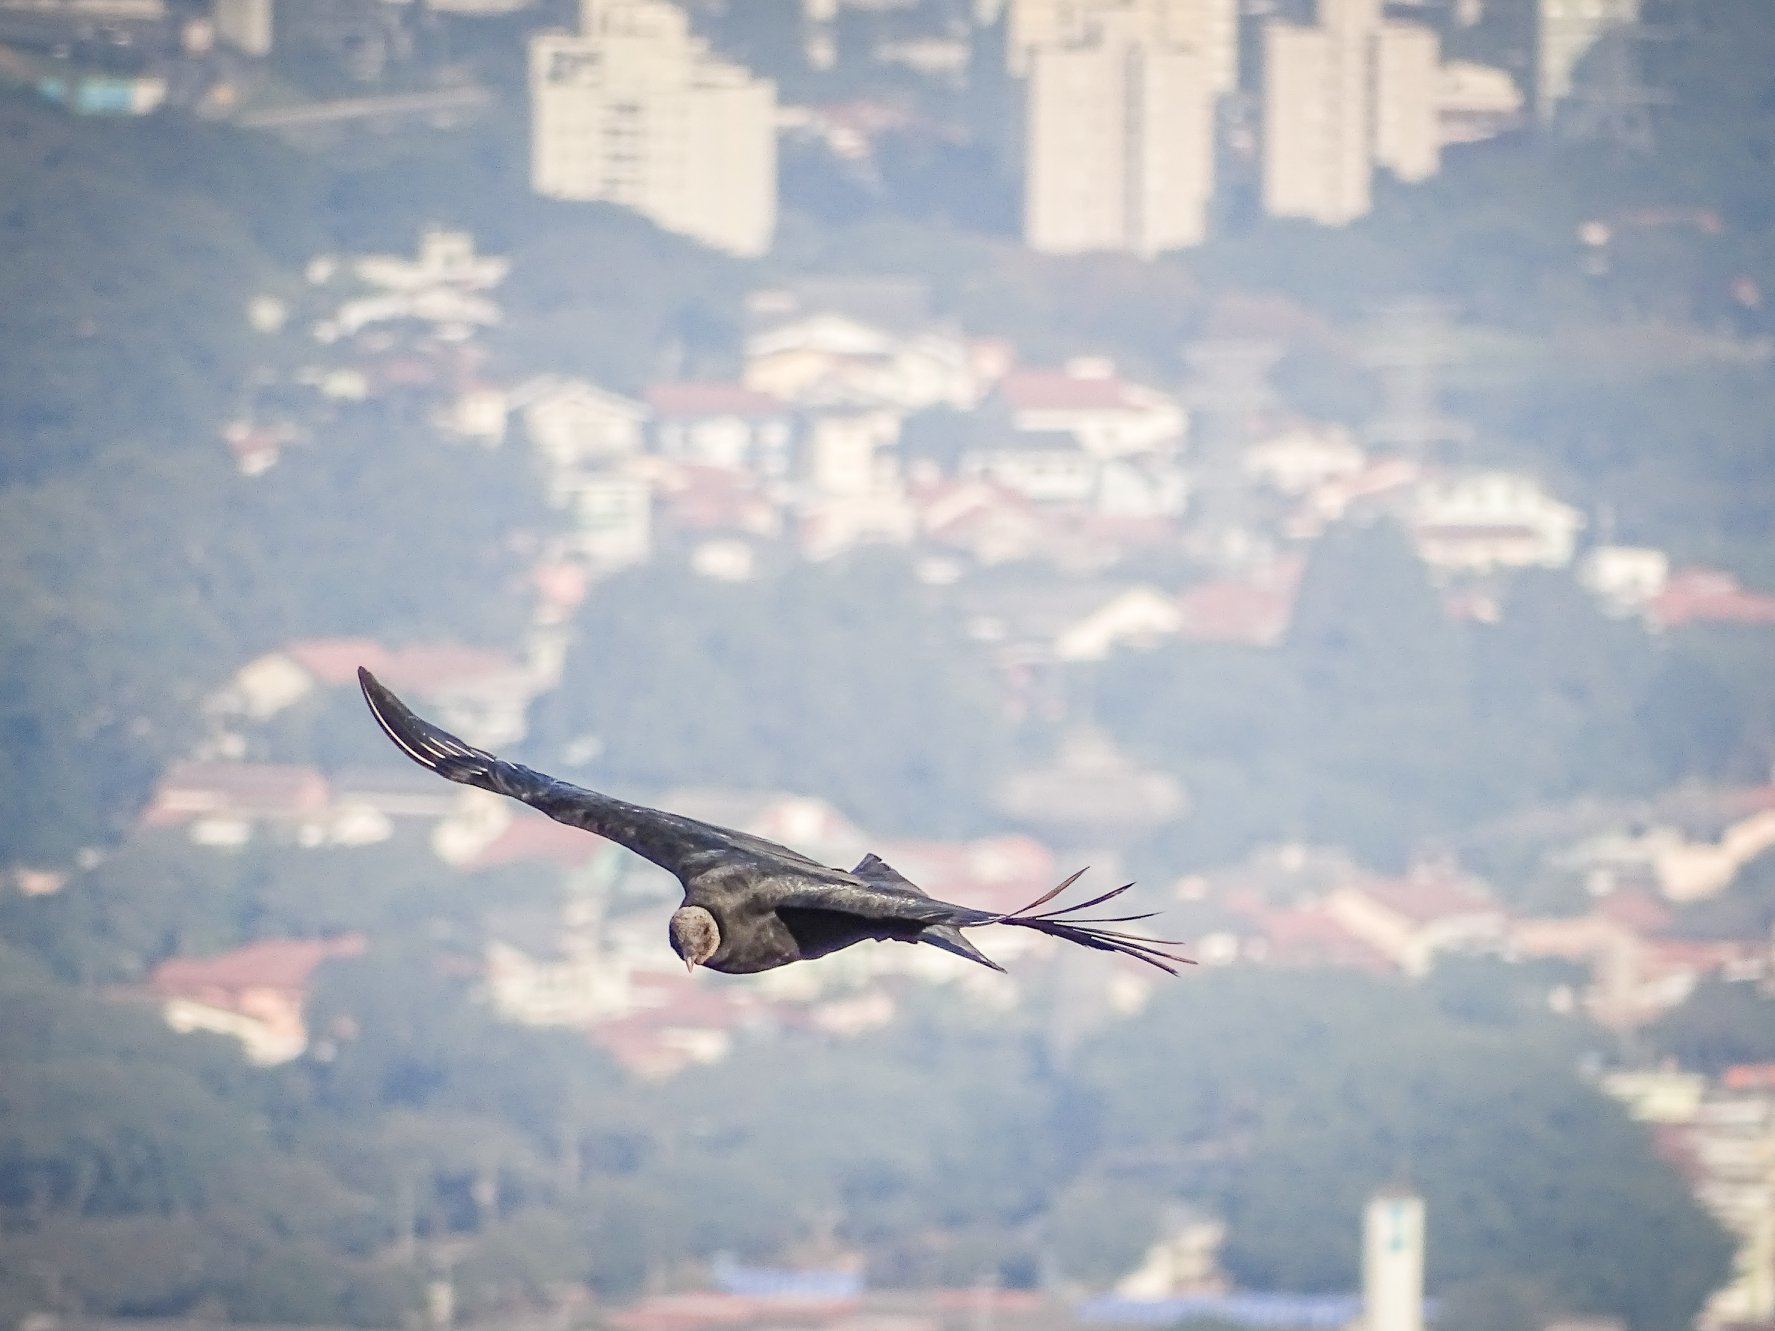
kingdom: Animalia
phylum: Chordata
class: Aves
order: Accipitriformes
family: Cathartidae
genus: Coragyps
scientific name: Coragyps atratus
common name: Black vulture
